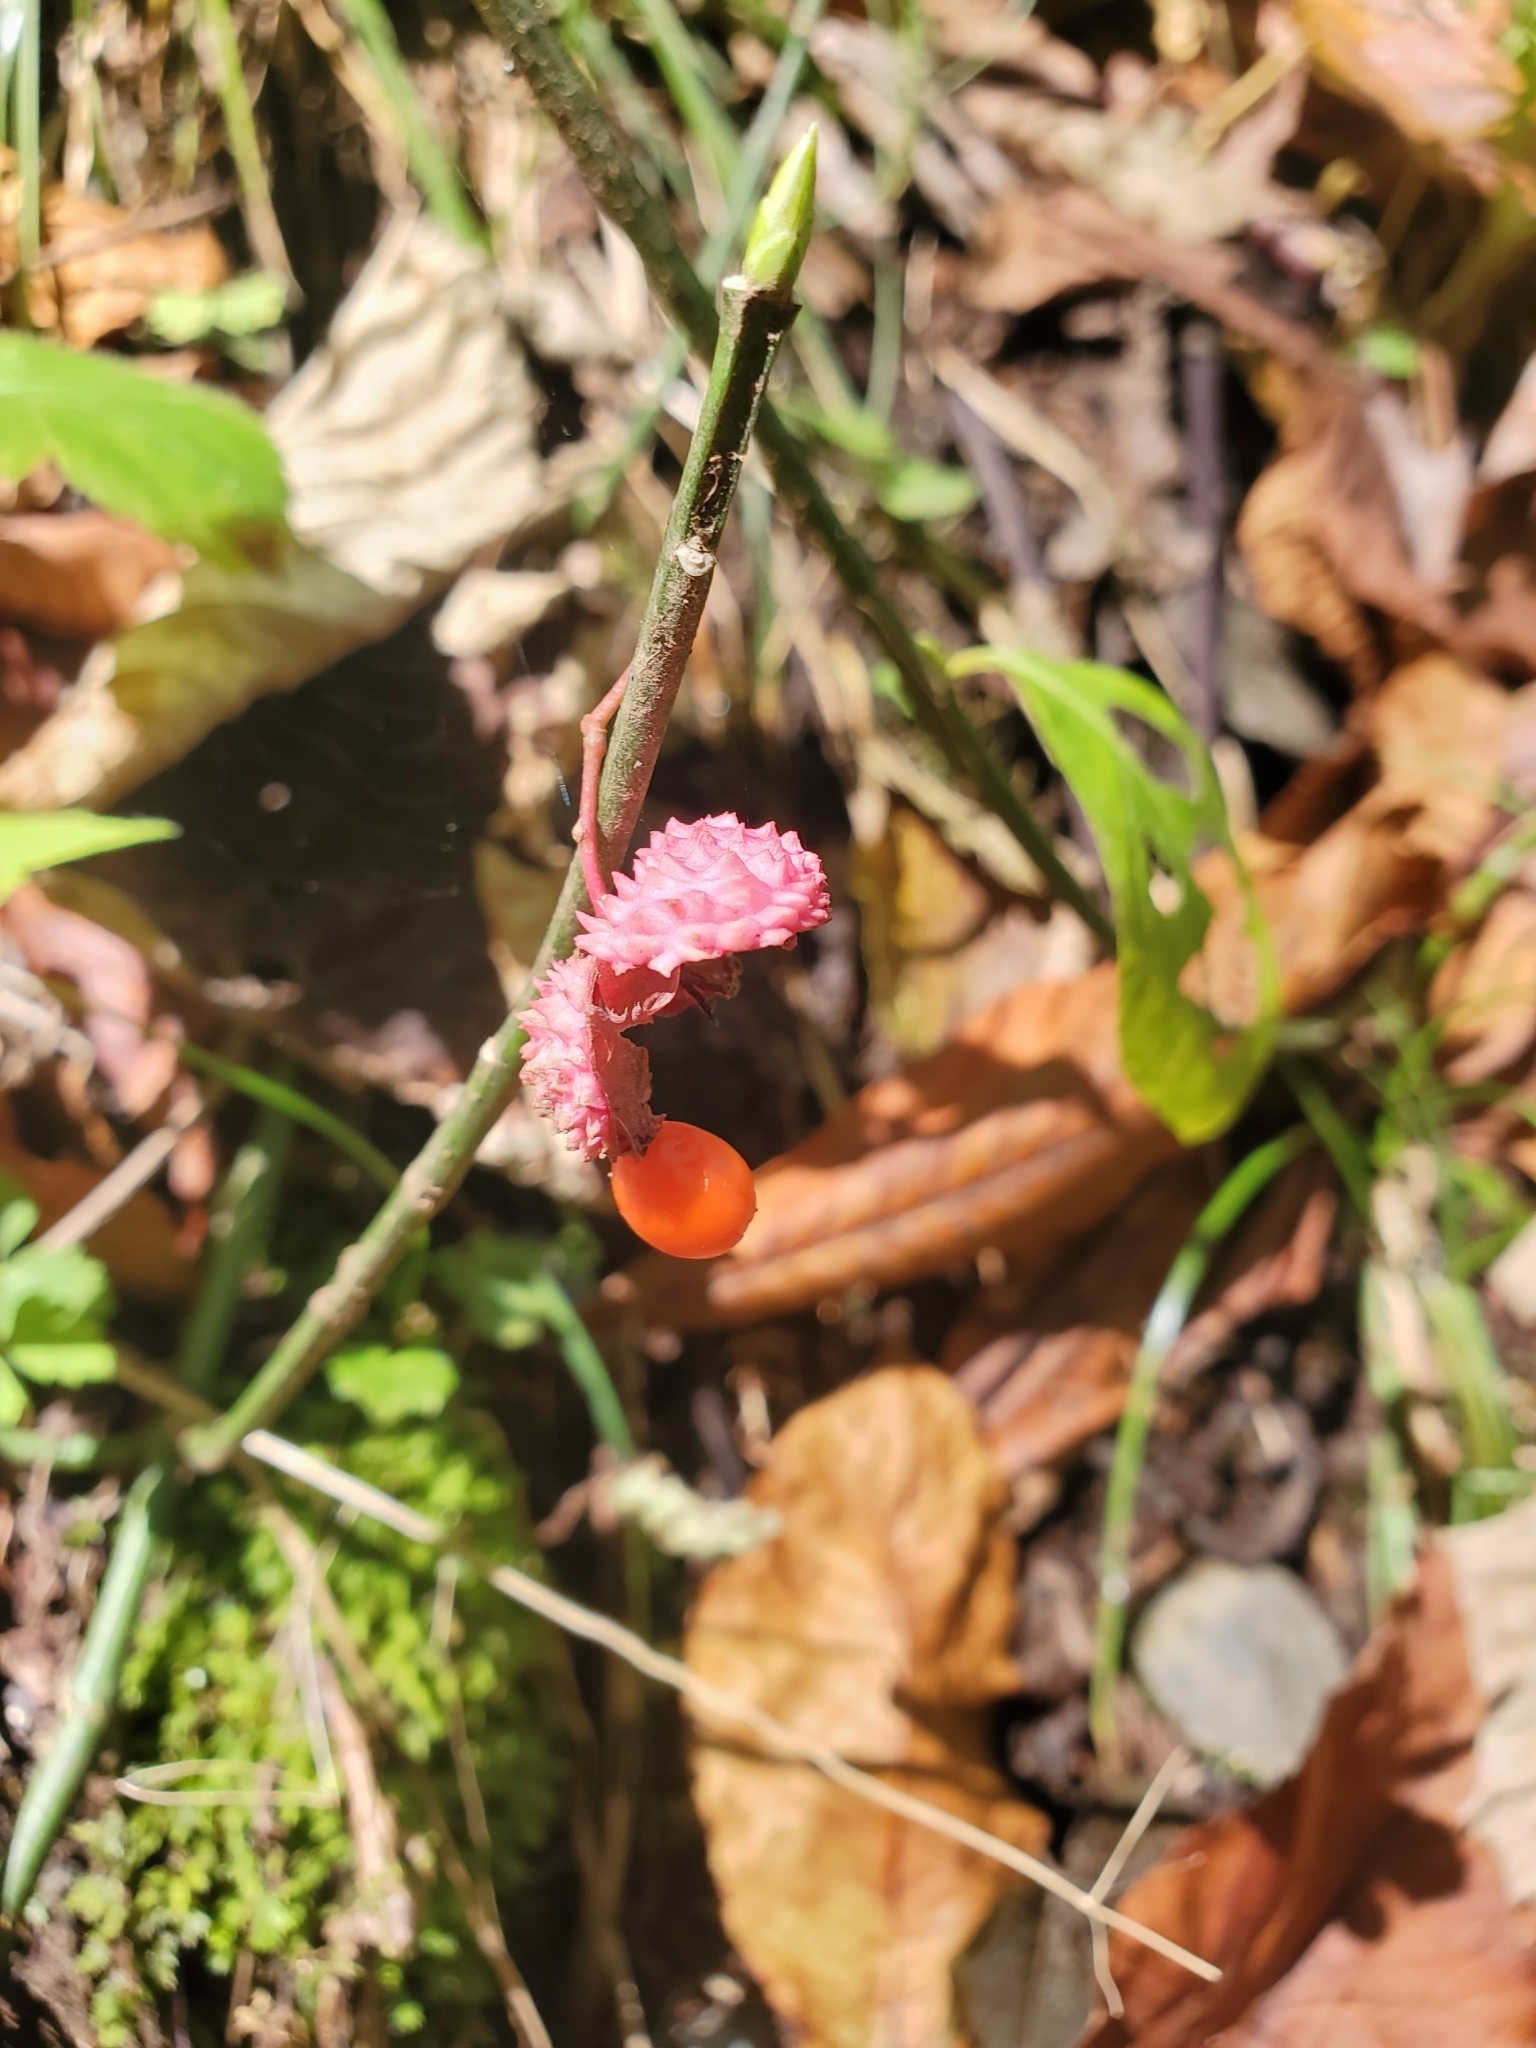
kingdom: Plantae
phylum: Tracheophyta
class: Magnoliopsida
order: Celastrales
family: Celastraceae
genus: Euonymus
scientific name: Euonymus americanus
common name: Bursting-heart
